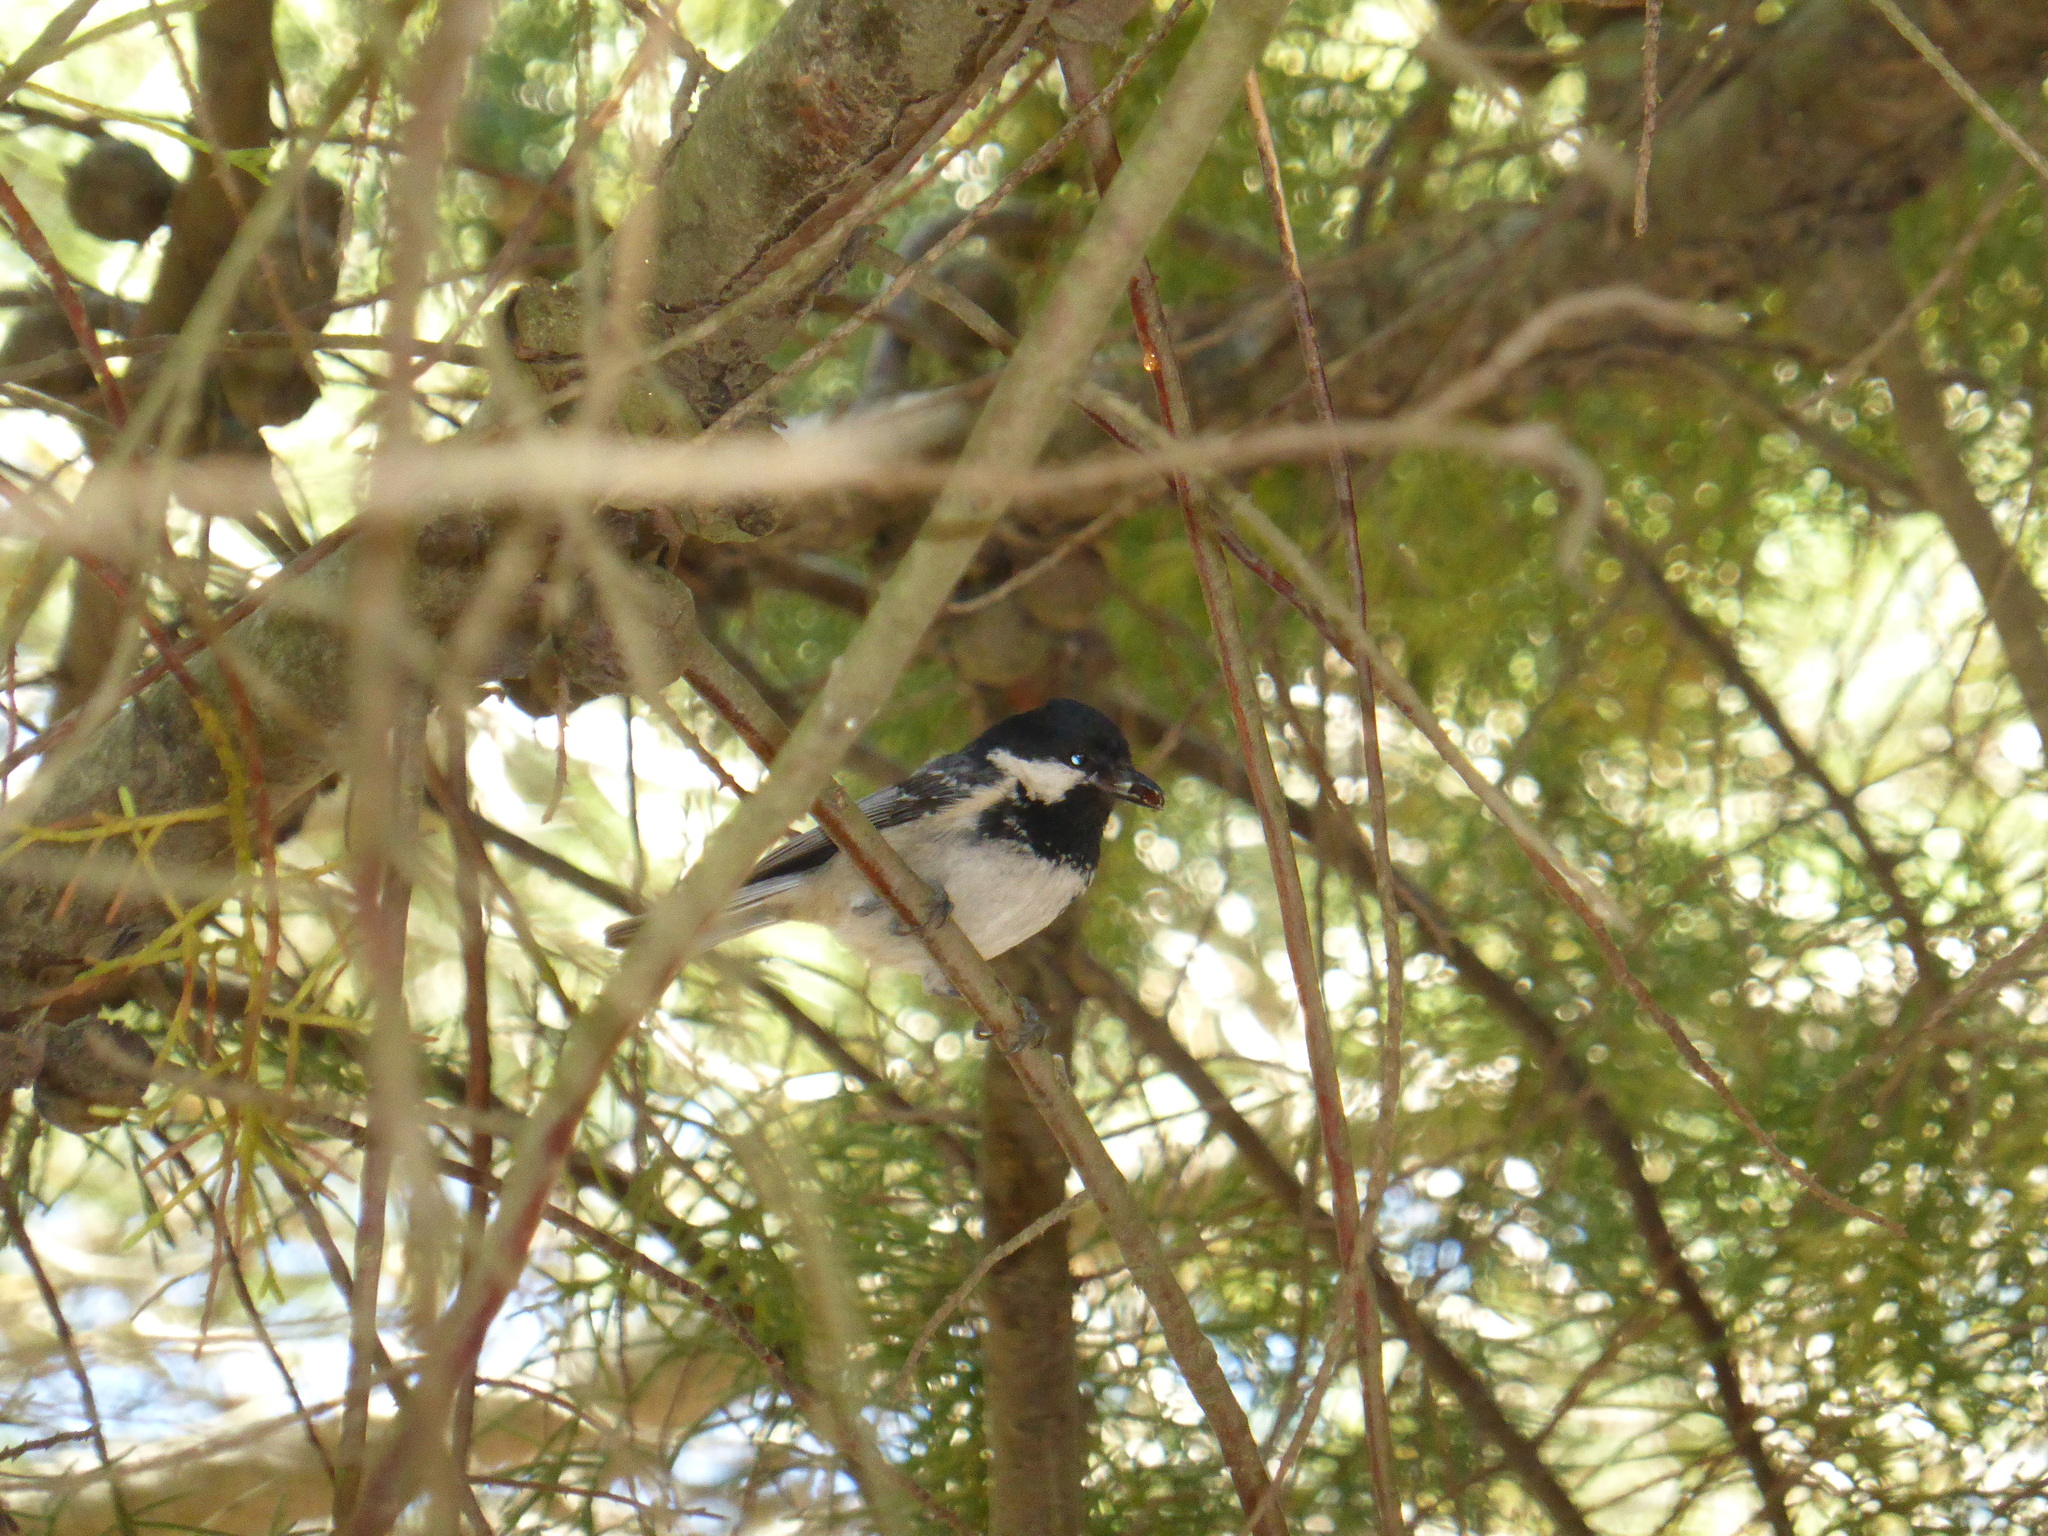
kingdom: Animalia
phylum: Chordata
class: Aves
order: Passeriformes
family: Paridae
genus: Periparus
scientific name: Periparus ater
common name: Coal tit
